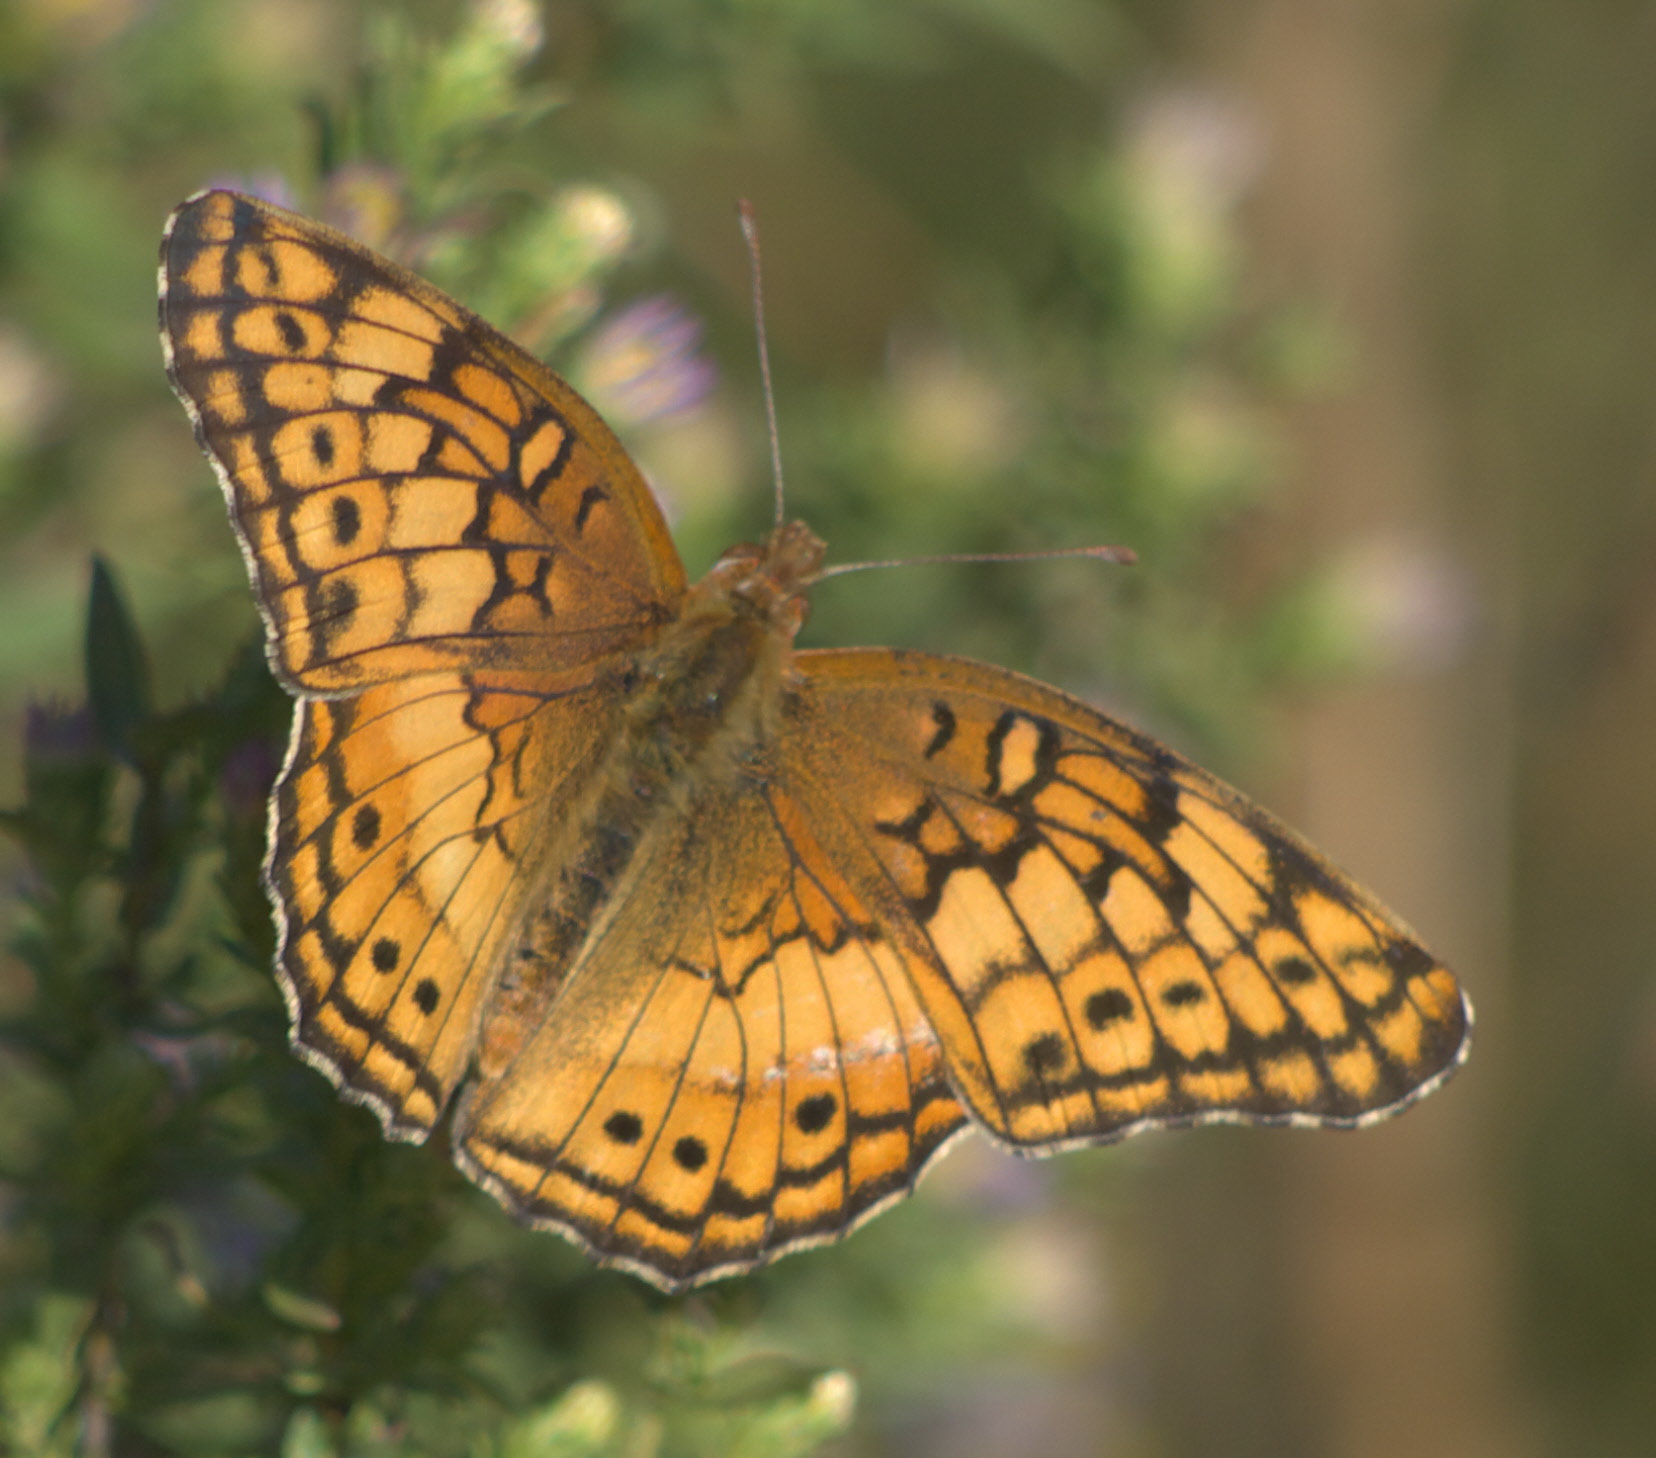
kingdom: Animalia
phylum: Arthropoda
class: Insecta
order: Lepidoptera
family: Nymphalidae
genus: Euptoieta
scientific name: Euptoieta claudia
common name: Variegated fritillary
